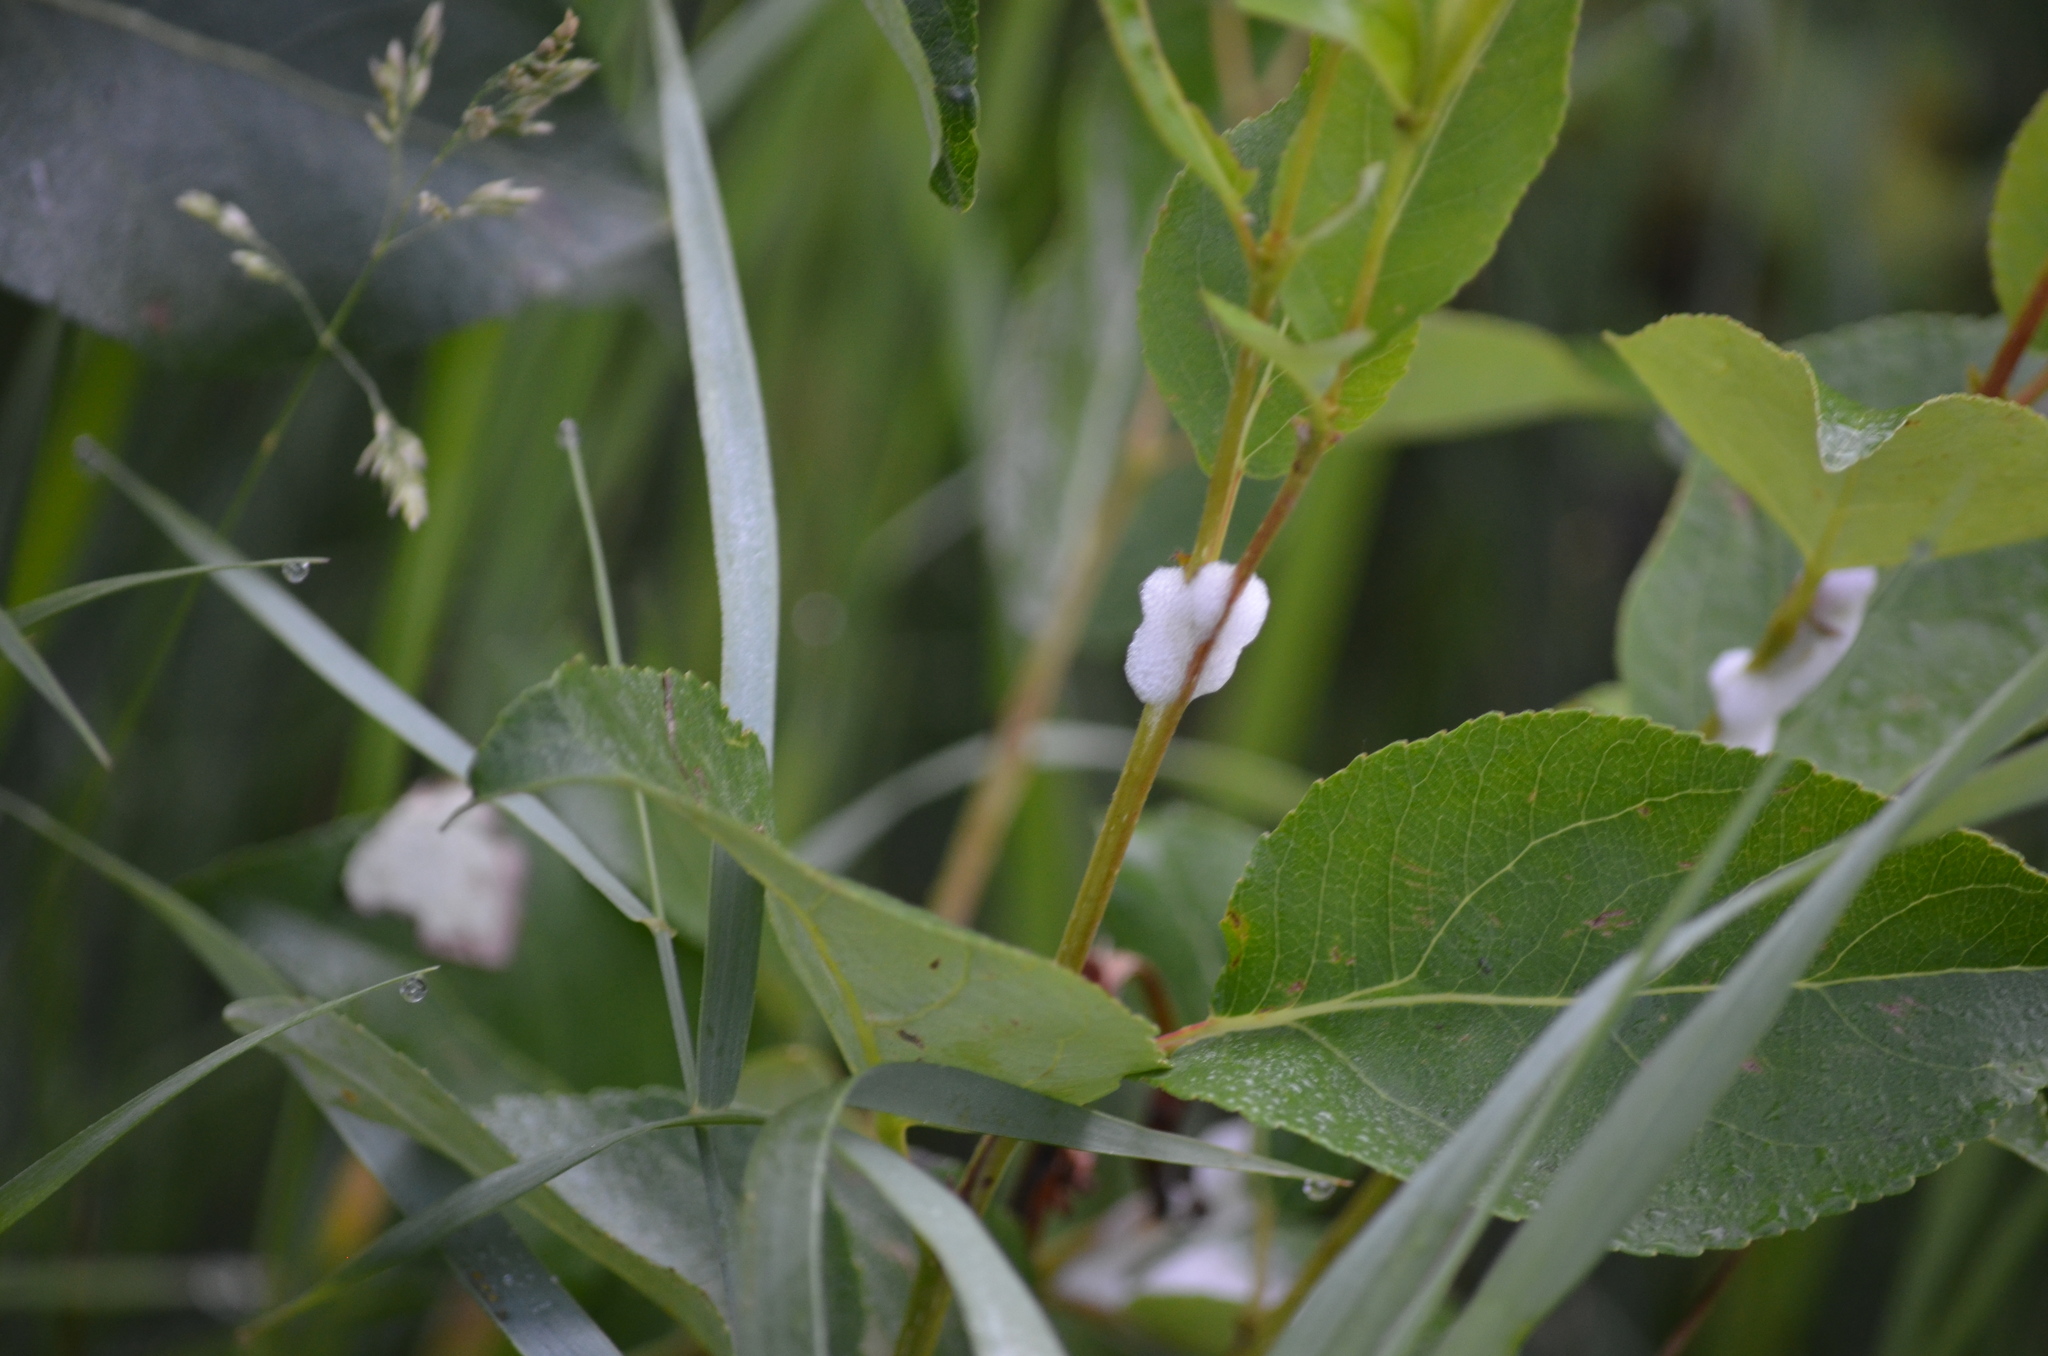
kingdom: Plantae
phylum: Tracheophyta
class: Magnoliopsida
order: Rosales
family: Rosaceae
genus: Prunus
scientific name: Prunus virginiana
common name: Chokecherry
